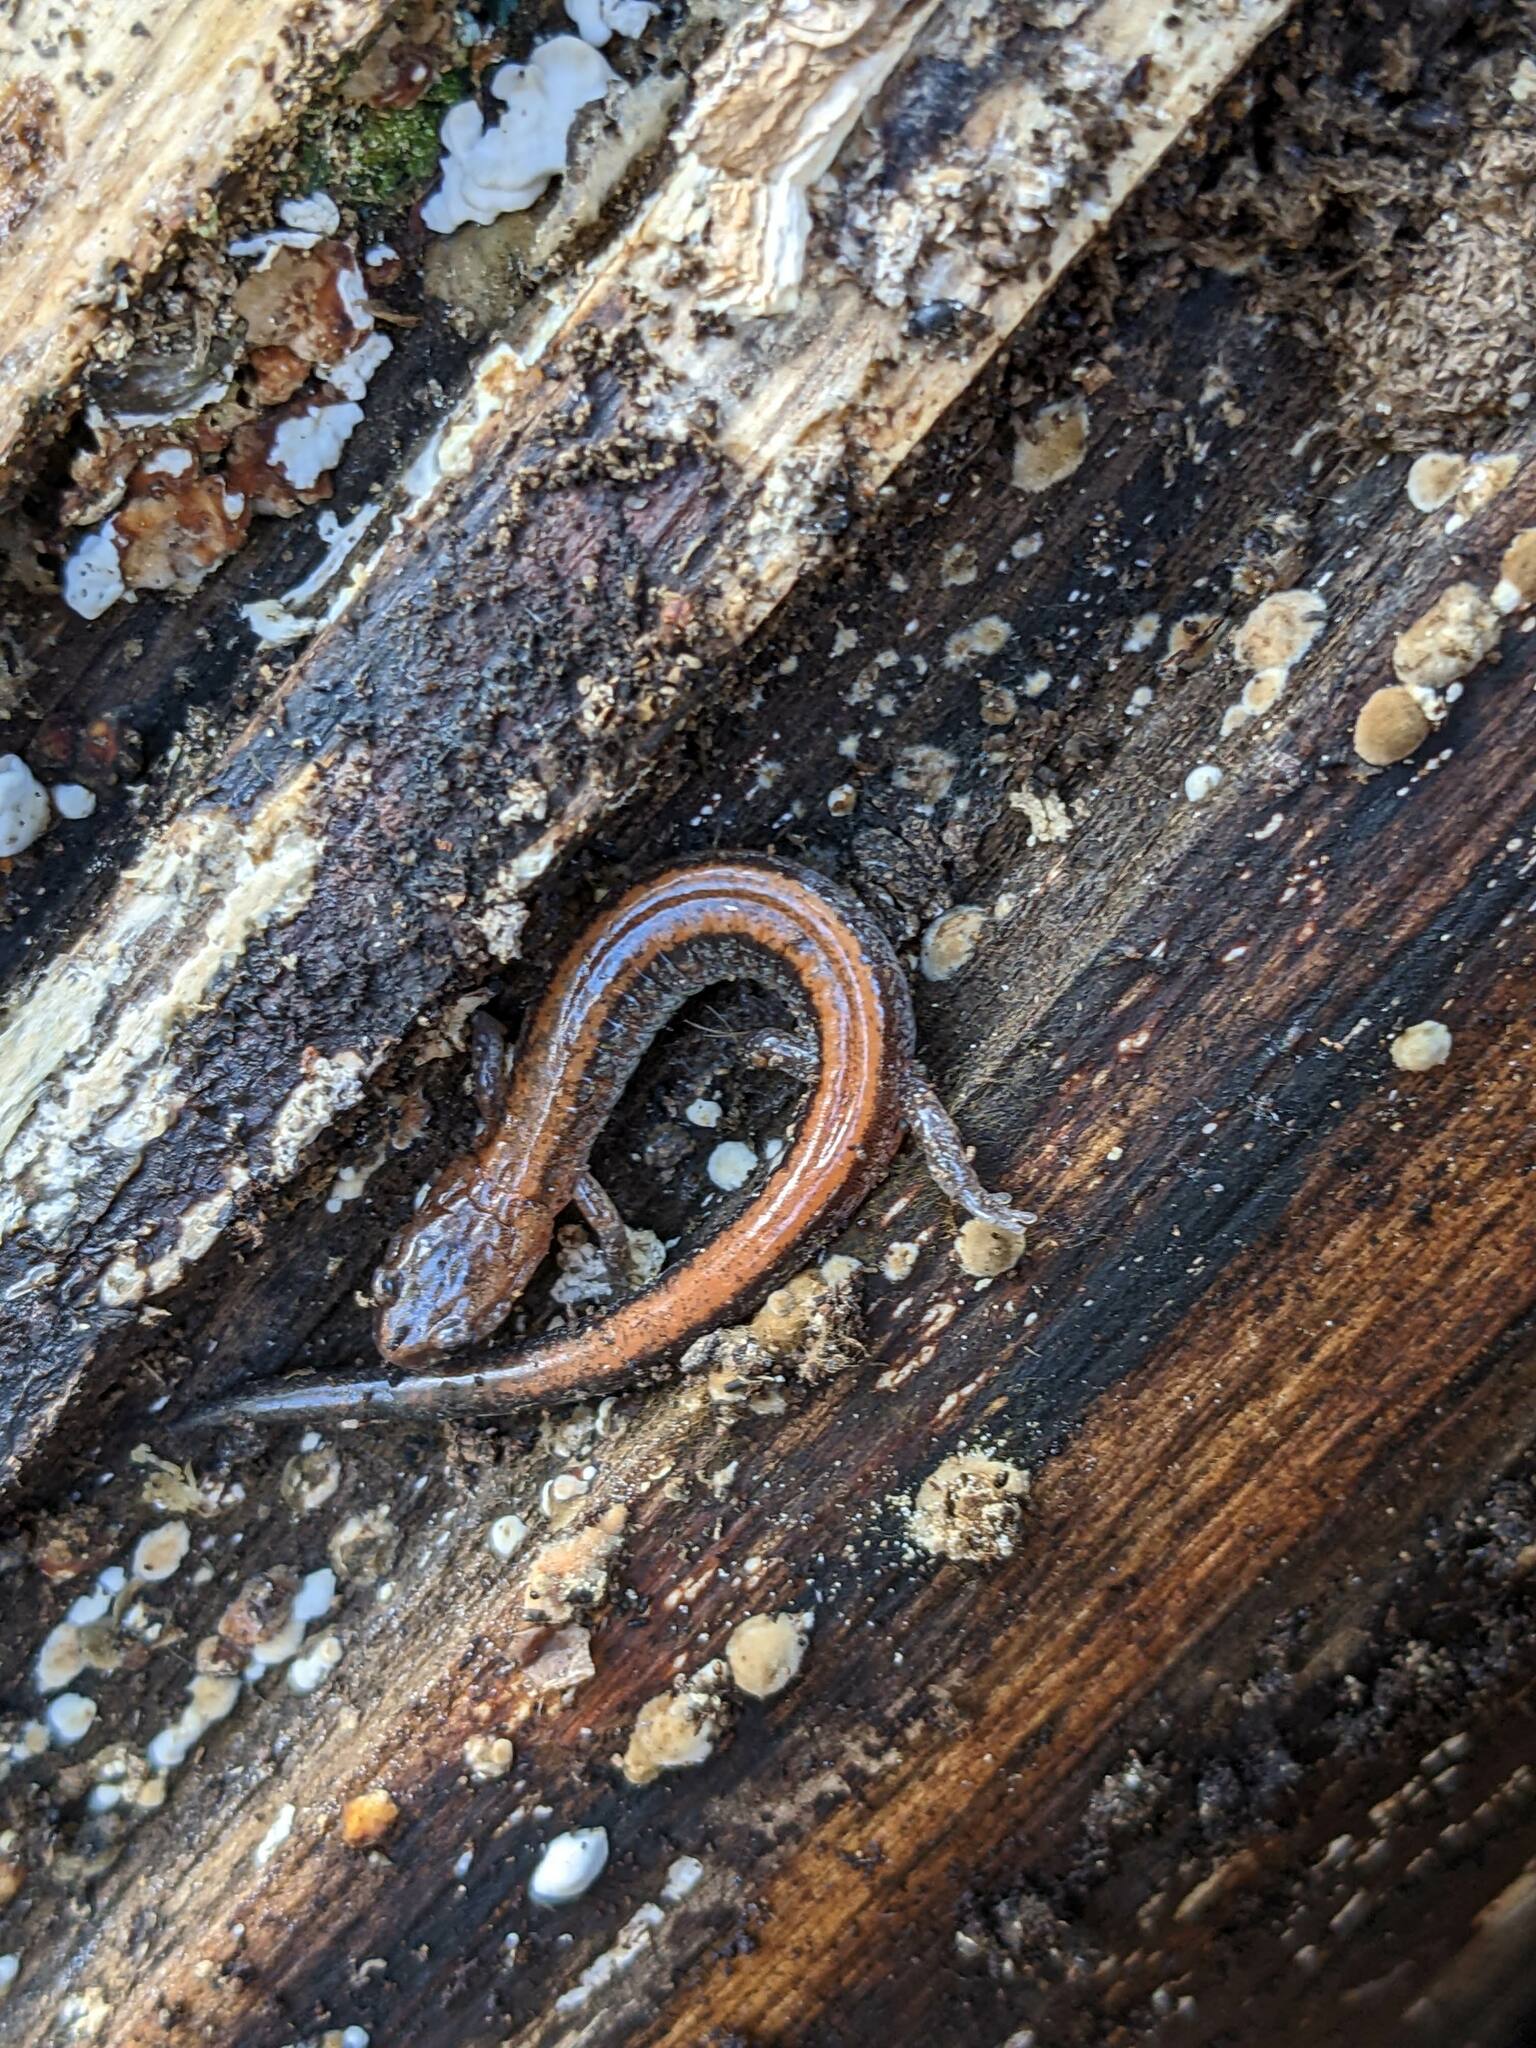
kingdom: Animalia
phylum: Chordata
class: Amphibia
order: Caudata
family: Plethodontidae
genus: Plethodon
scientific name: Plethodon cinereus
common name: Redback salamander
